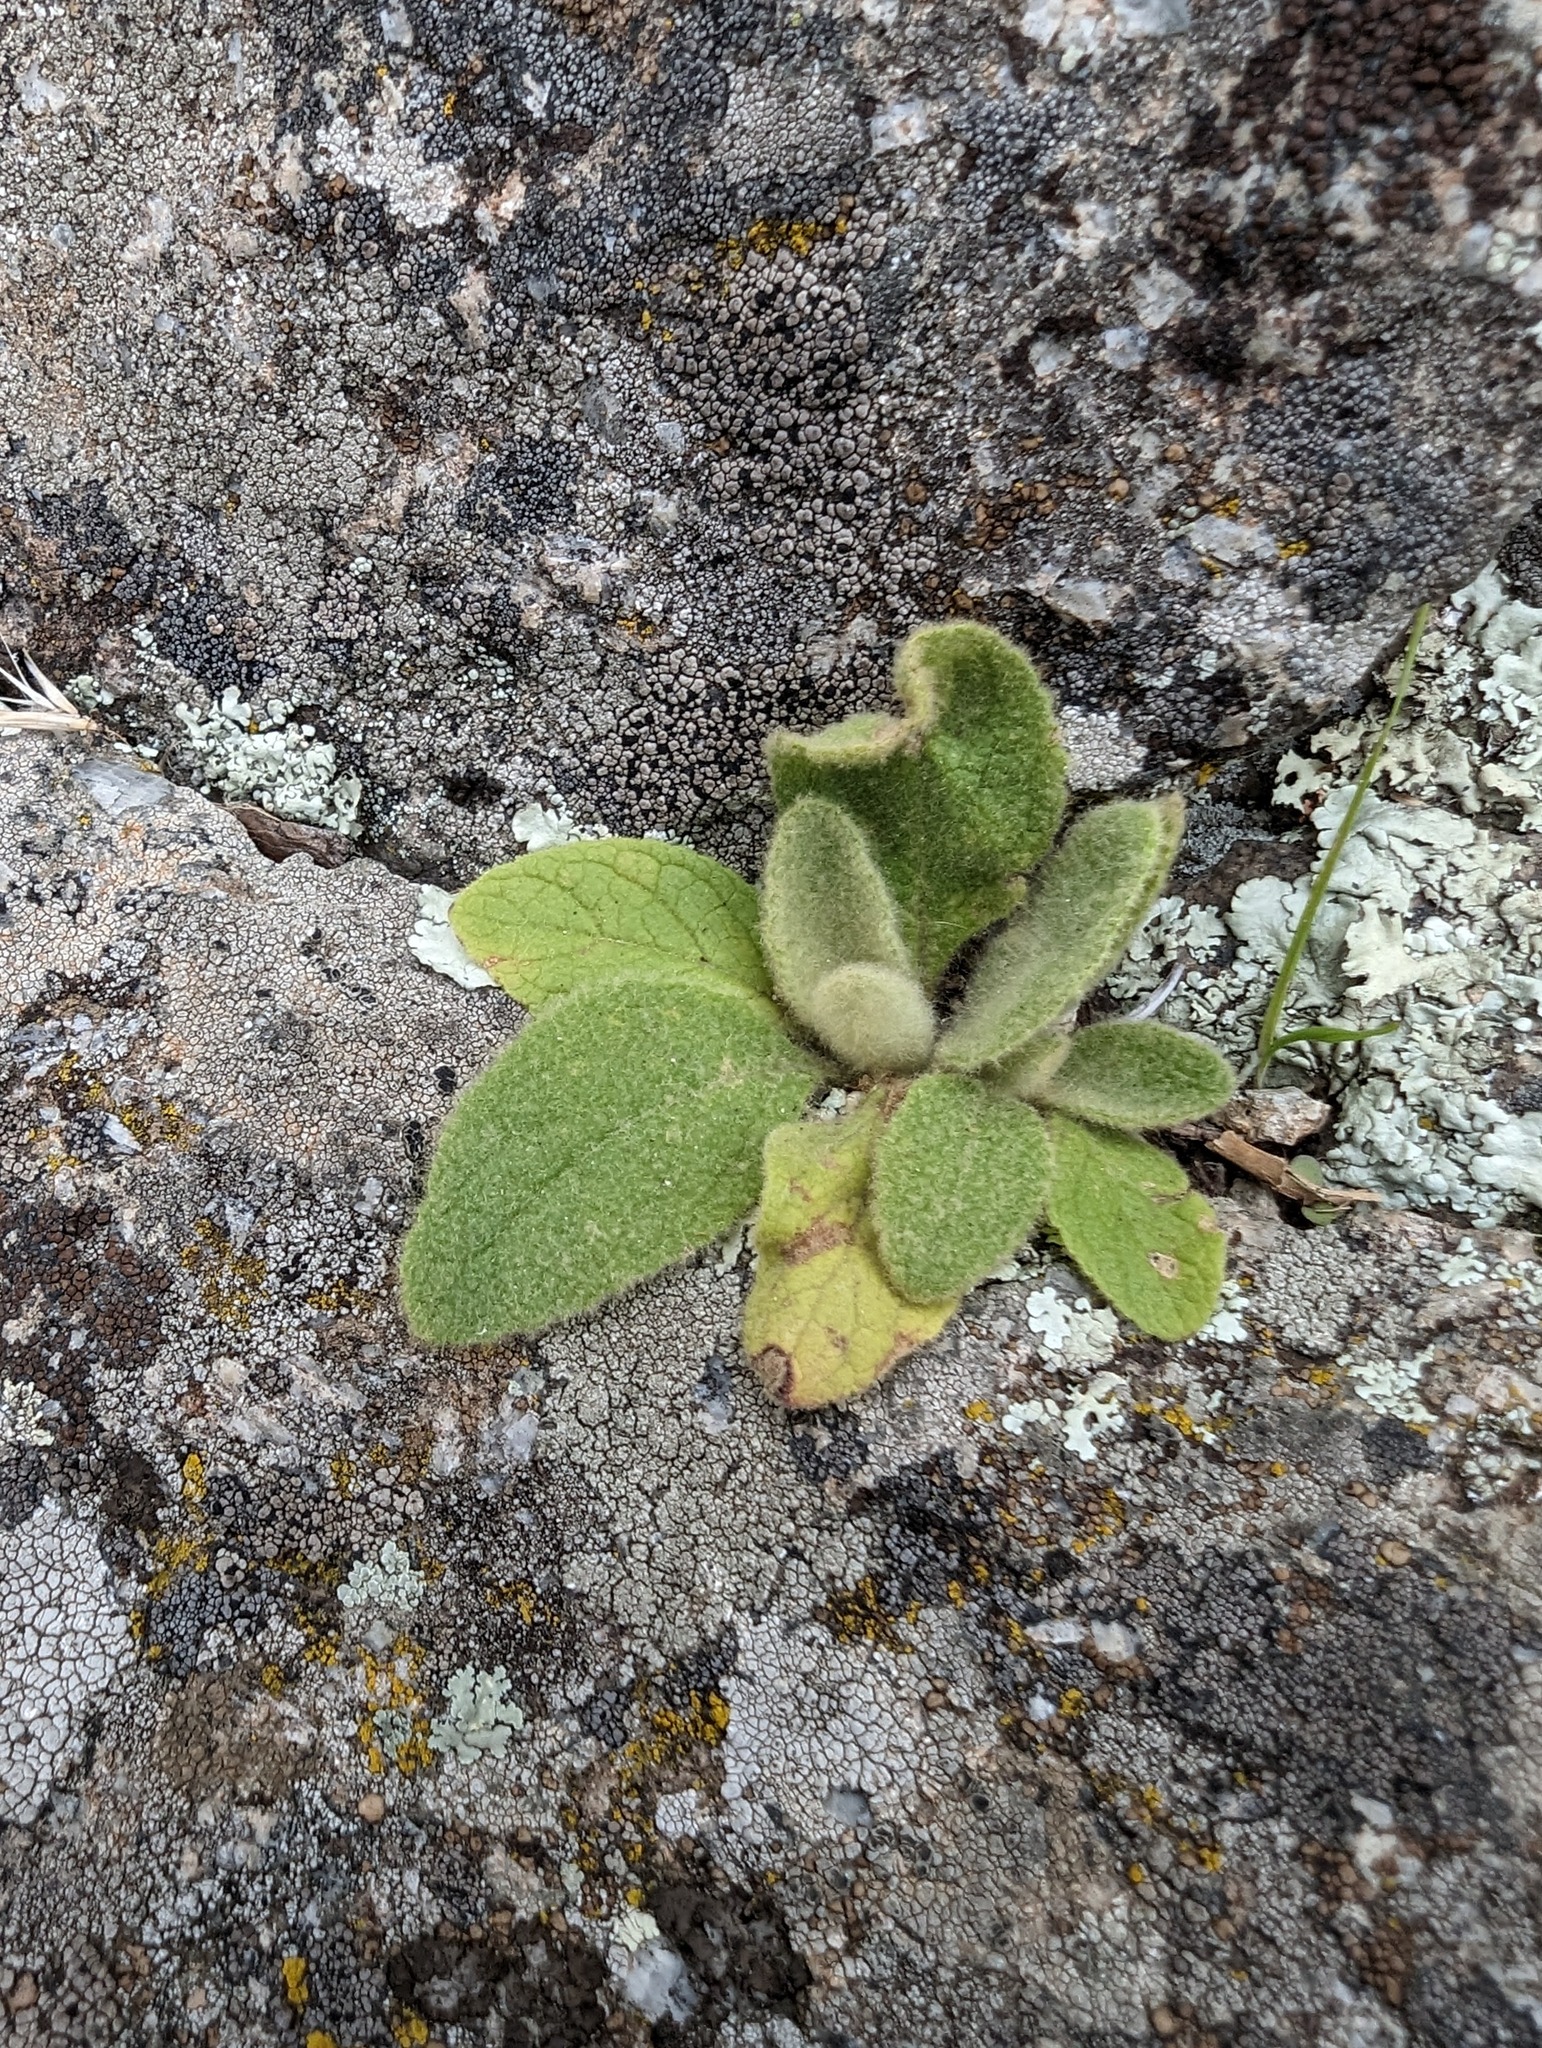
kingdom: Plantae
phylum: Tracheophyta
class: Magnoliopsida
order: Lamiales
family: Scrophulariaceae
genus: Verbascum
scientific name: Verbascum thapsus
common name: Common mullein
